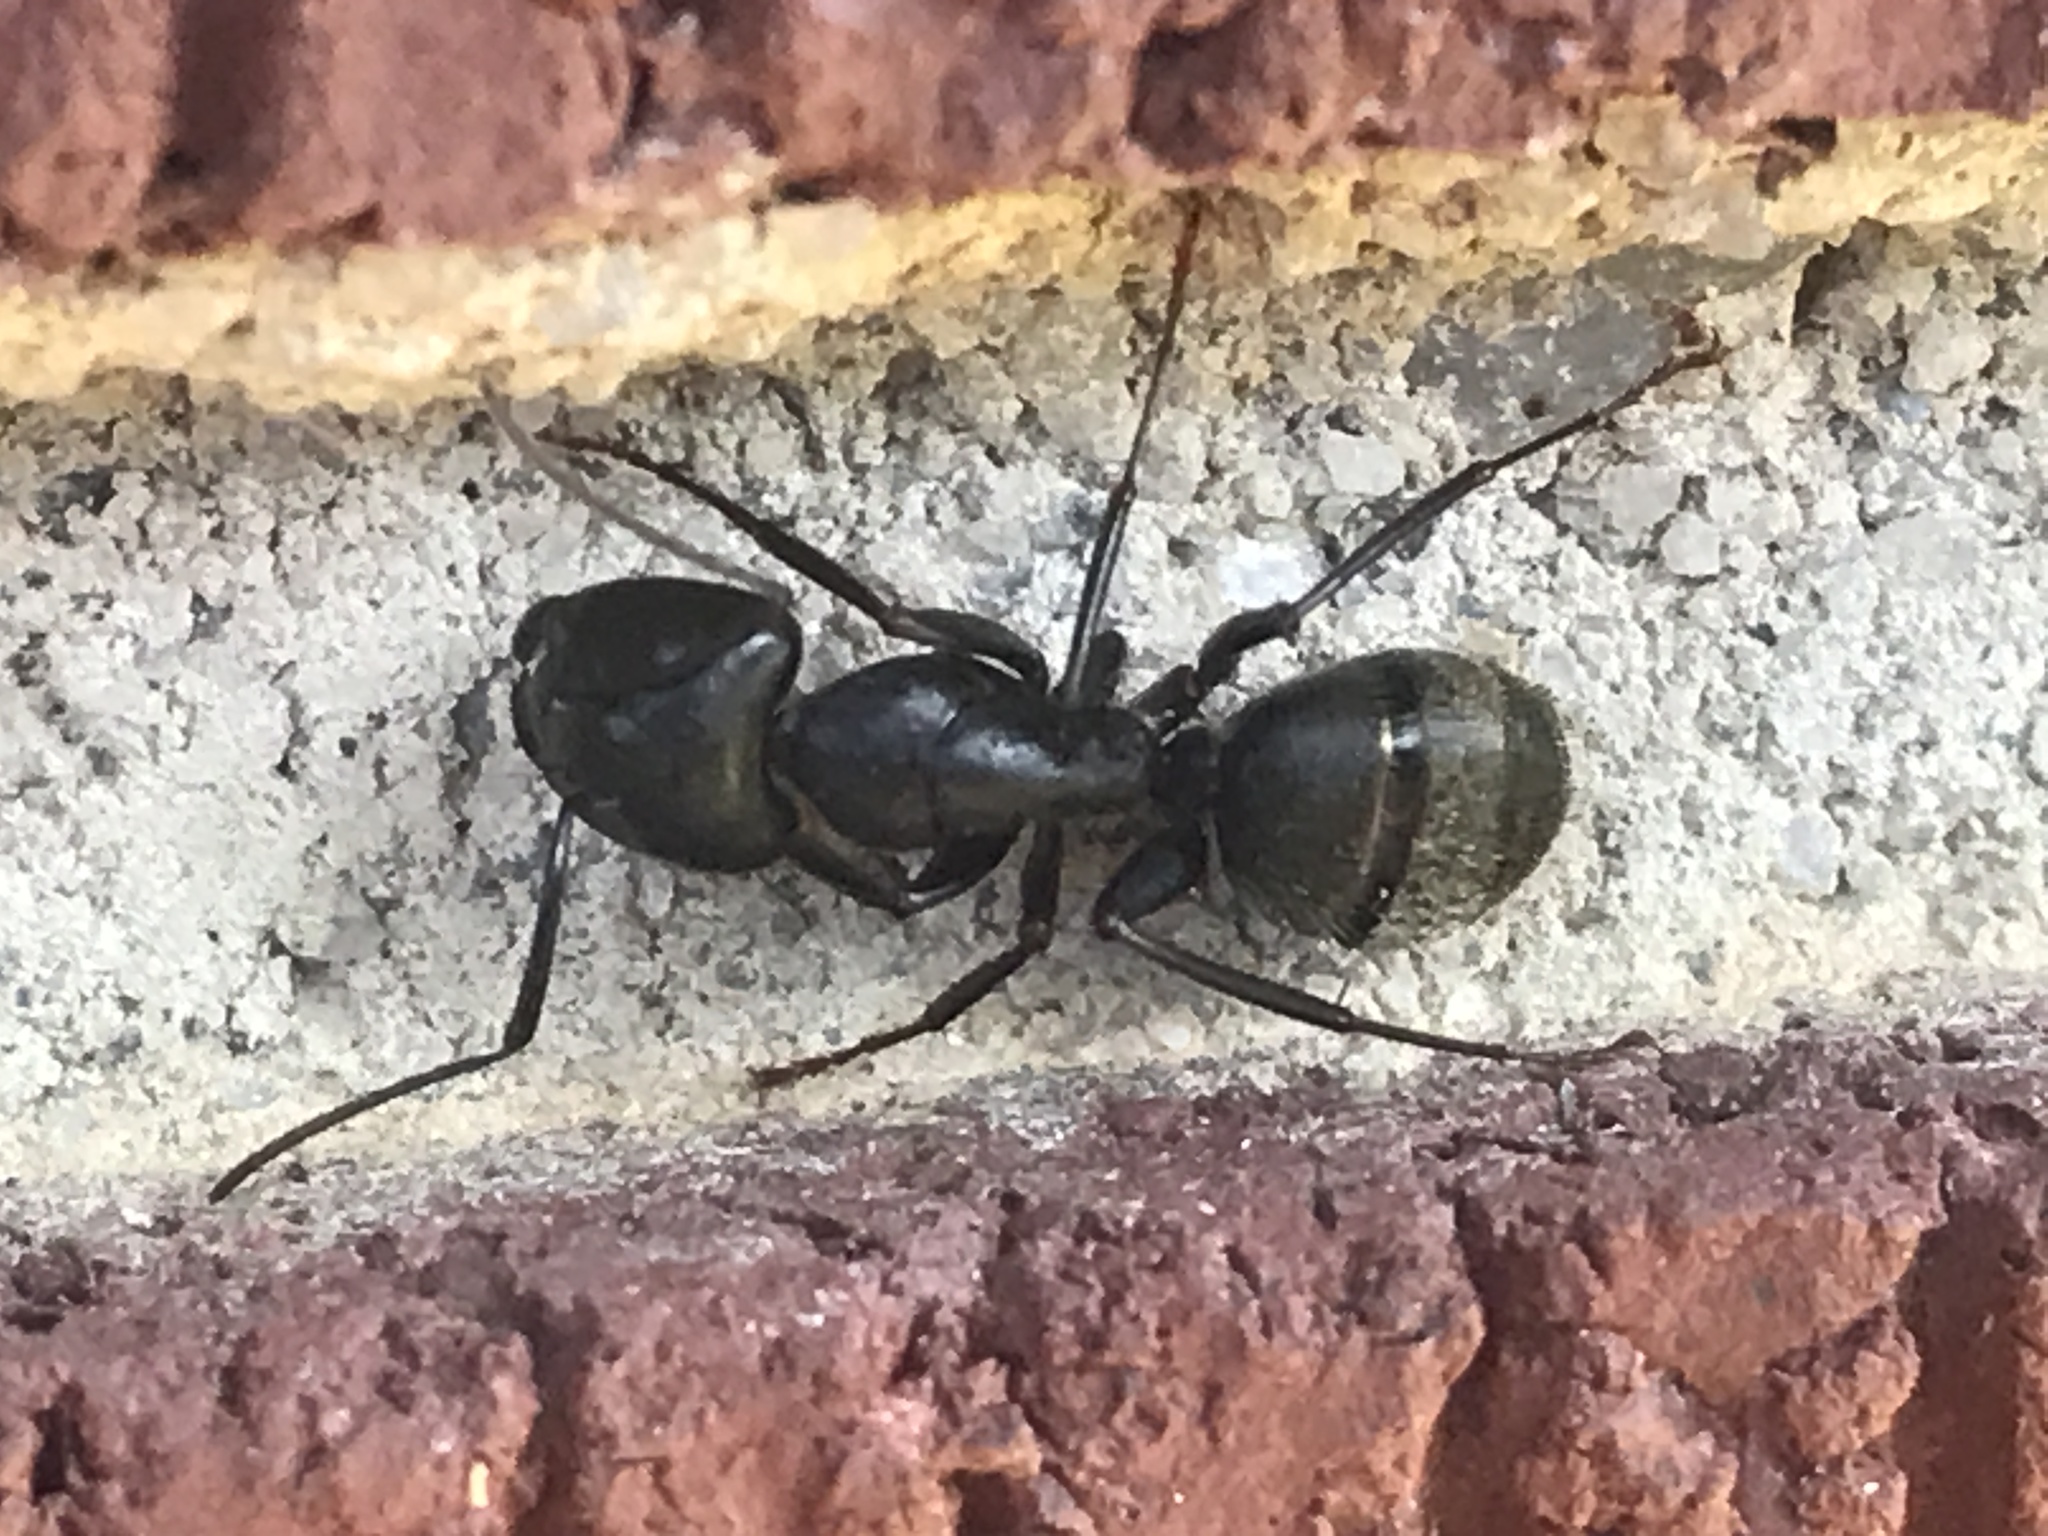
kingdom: Animalia
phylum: Arthropoda
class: Insecta
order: Hymenoptera
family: Formicidae
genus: Camponotus
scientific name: Camponotus pennsylvanicus
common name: Black carpenter ant
